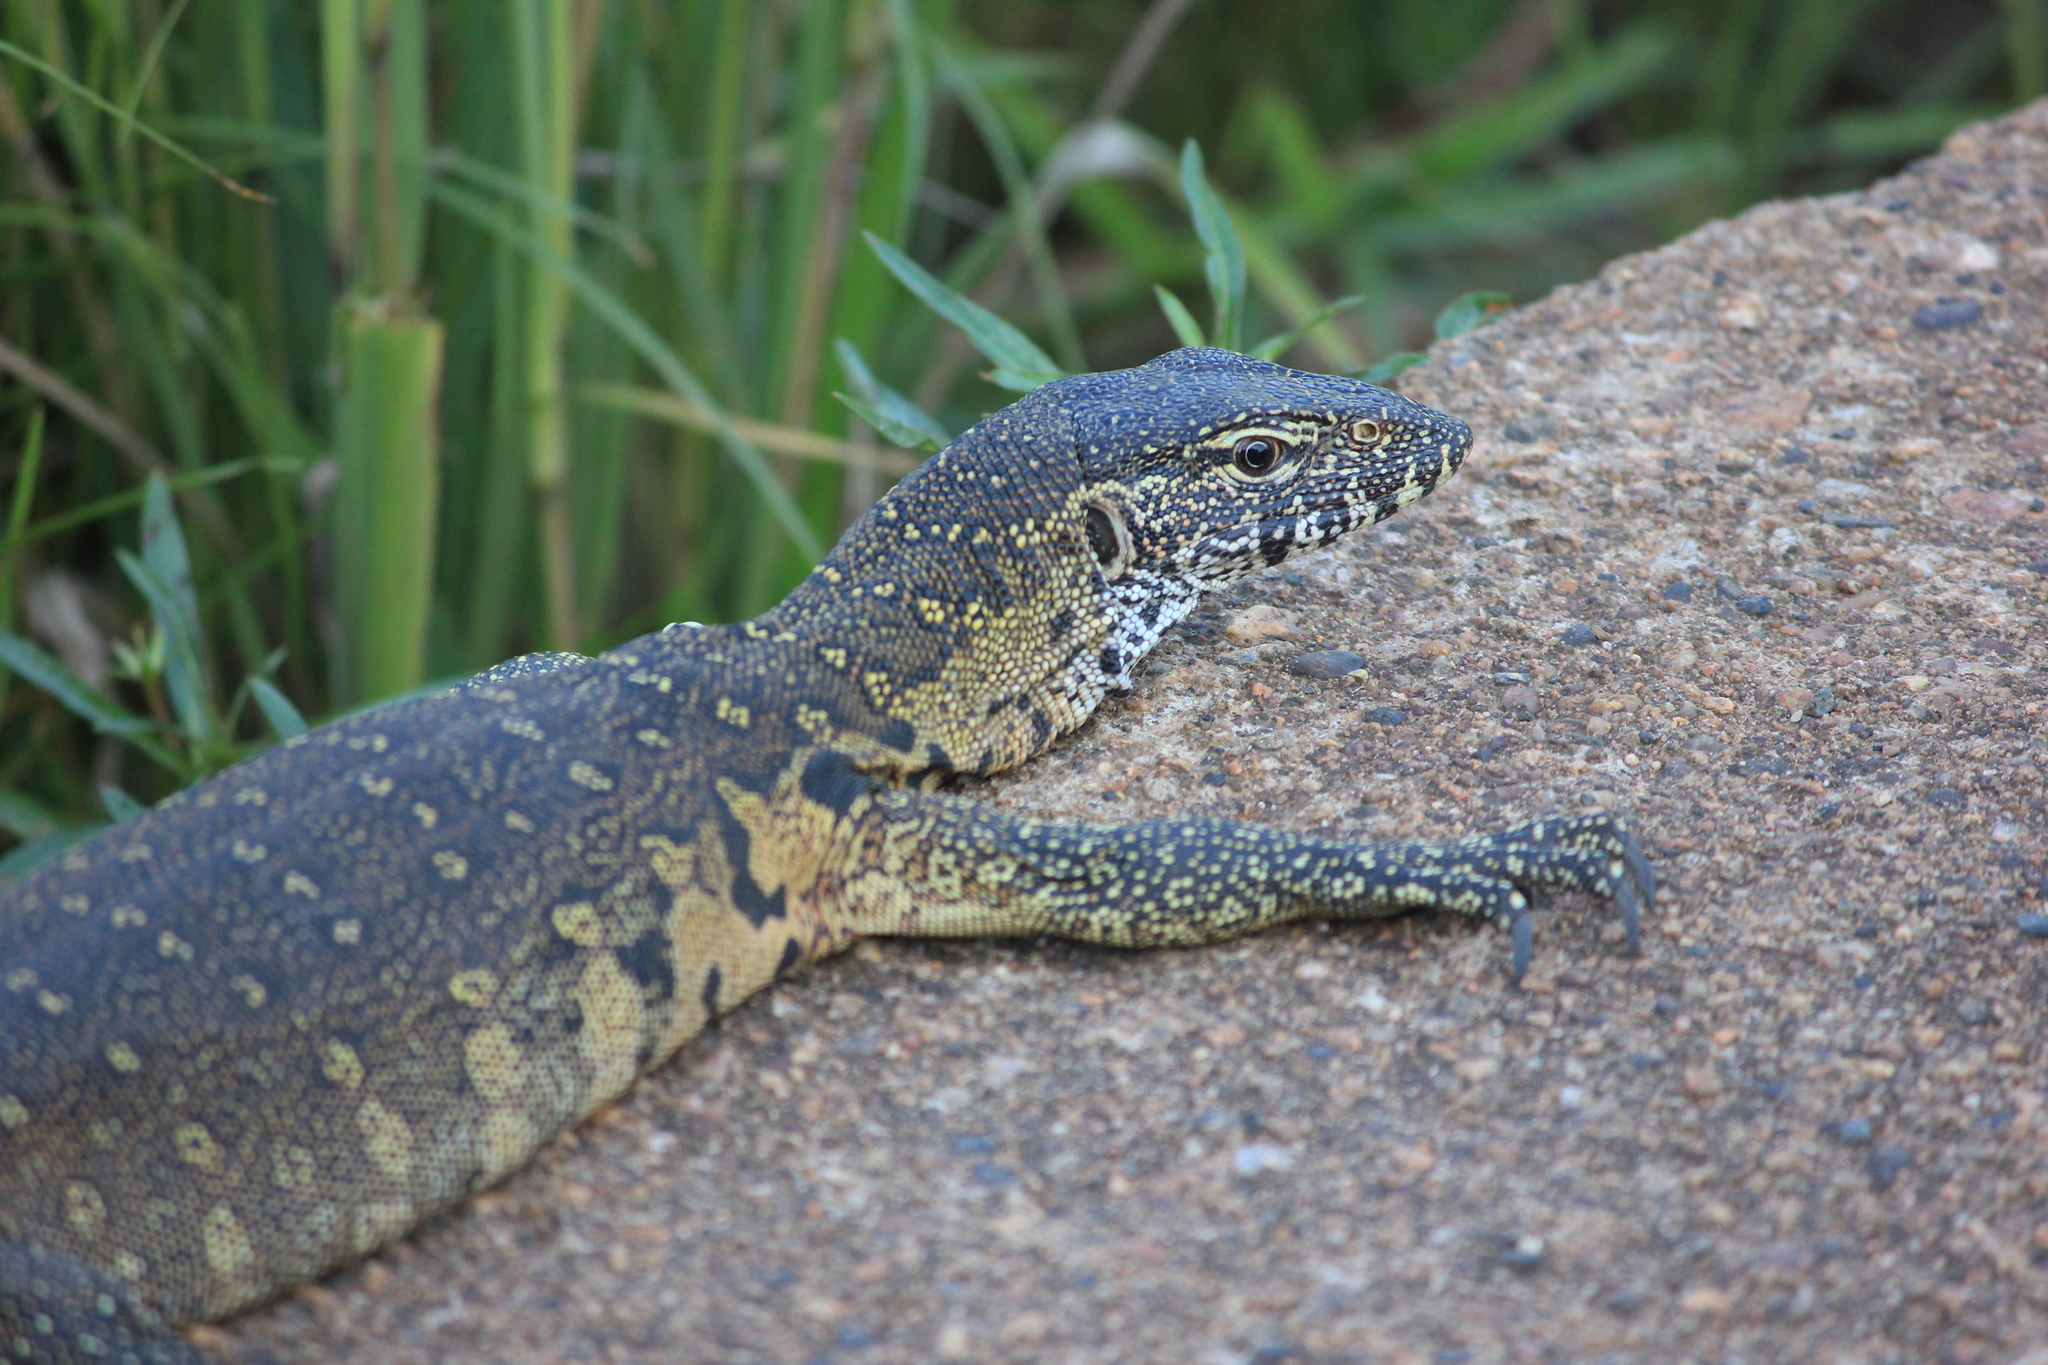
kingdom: Animalia
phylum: Chordata
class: Squamata
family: Varanidae
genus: Varanus
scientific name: Varanus niloticus
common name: Nile monitor
